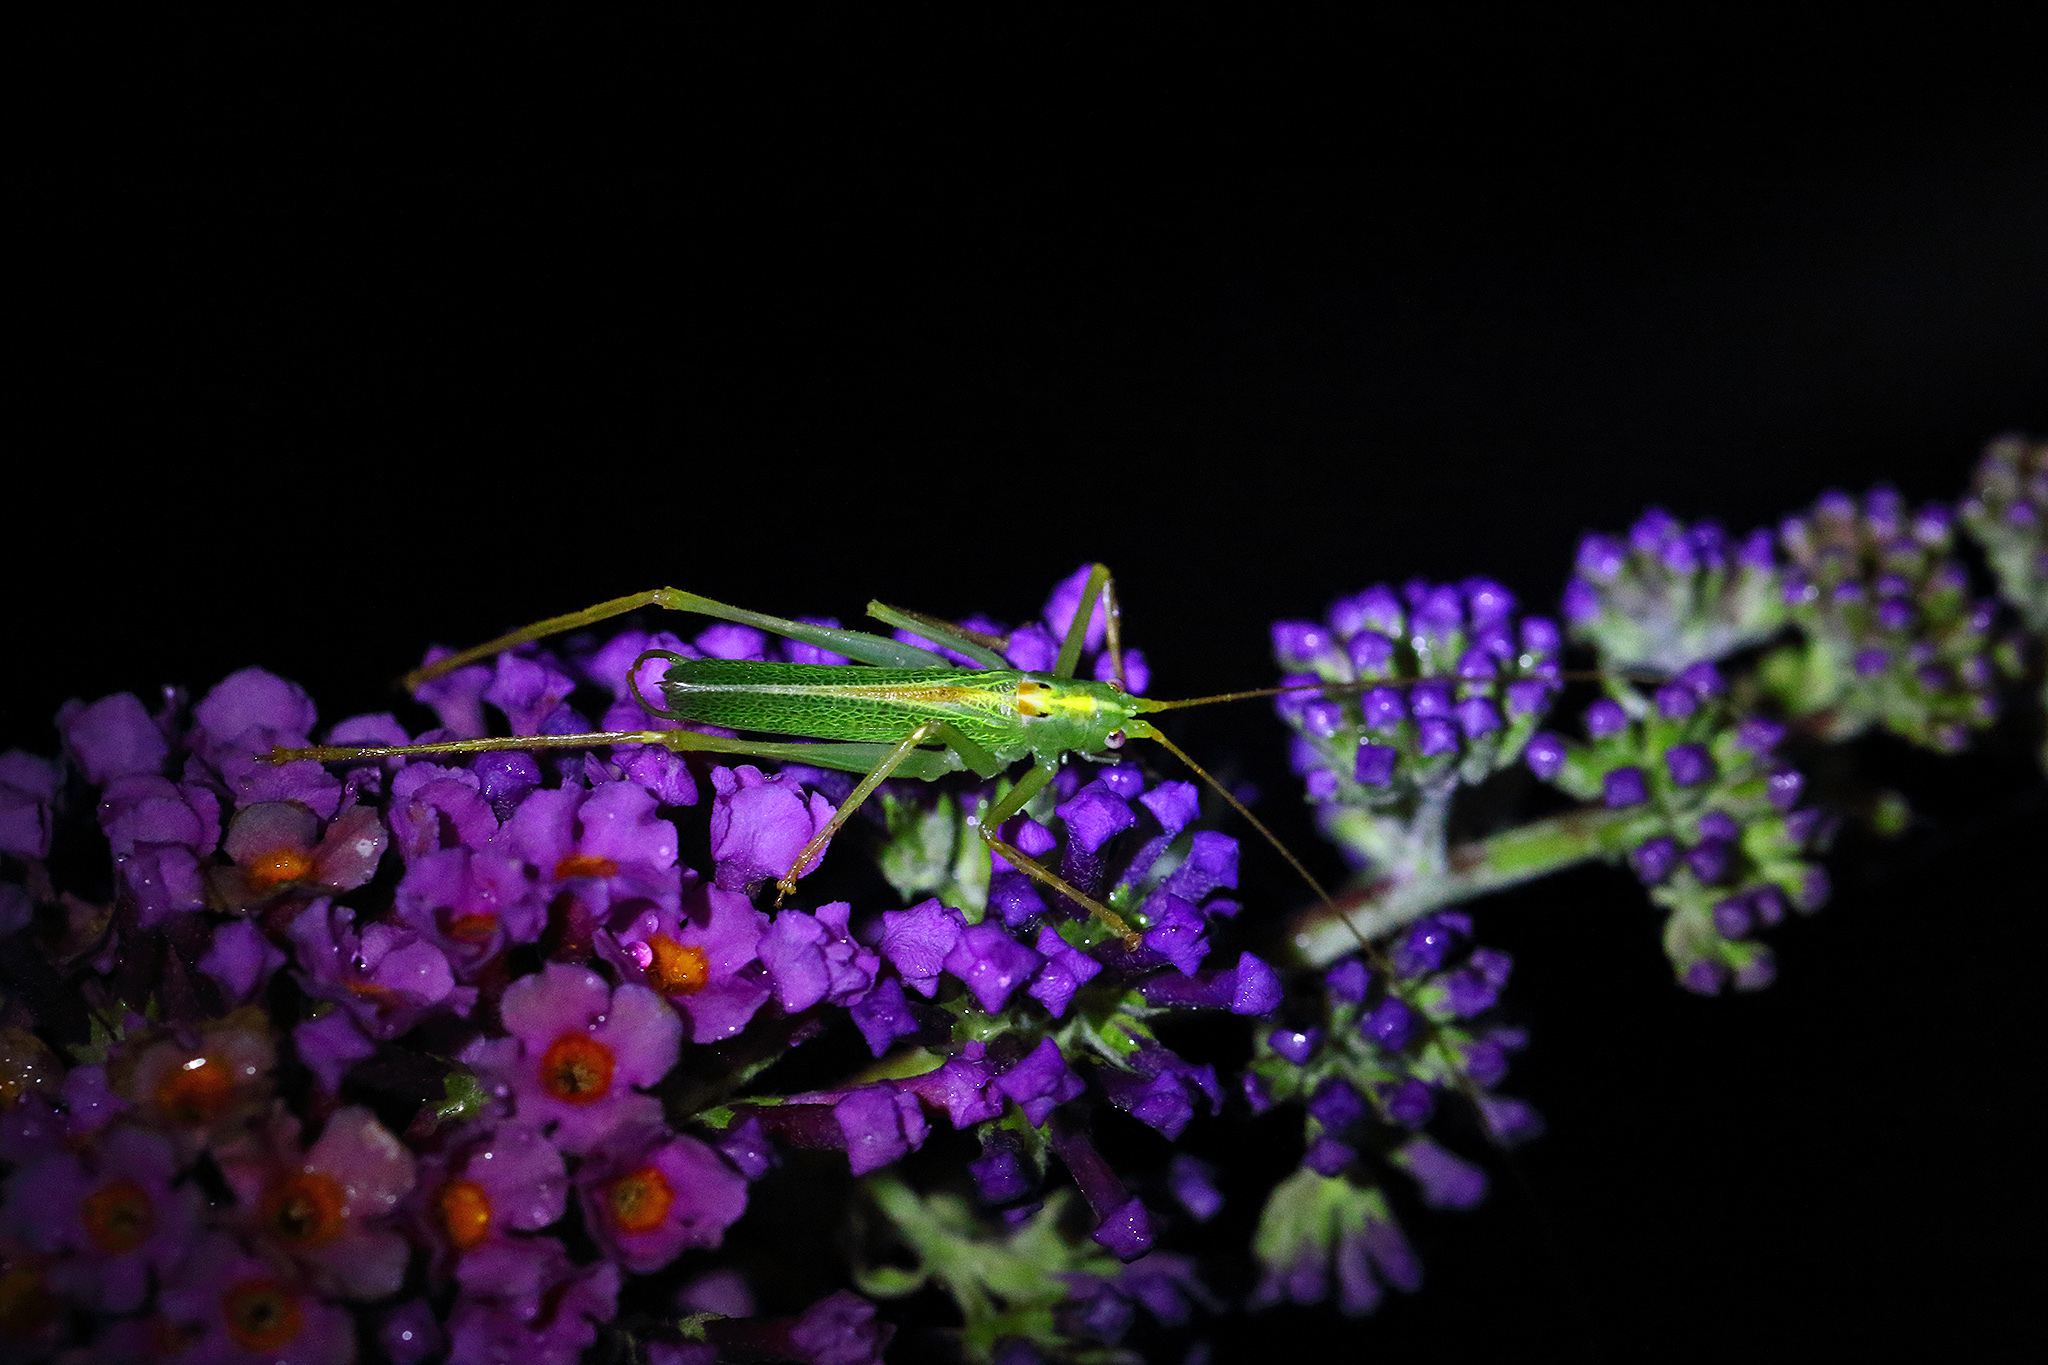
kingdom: Animalia
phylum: Arthropoda
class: Insecta
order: Orthoptera
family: Tettigoniidae
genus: Meconema
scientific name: Meconema thalassinum
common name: Oak bush-cricket
